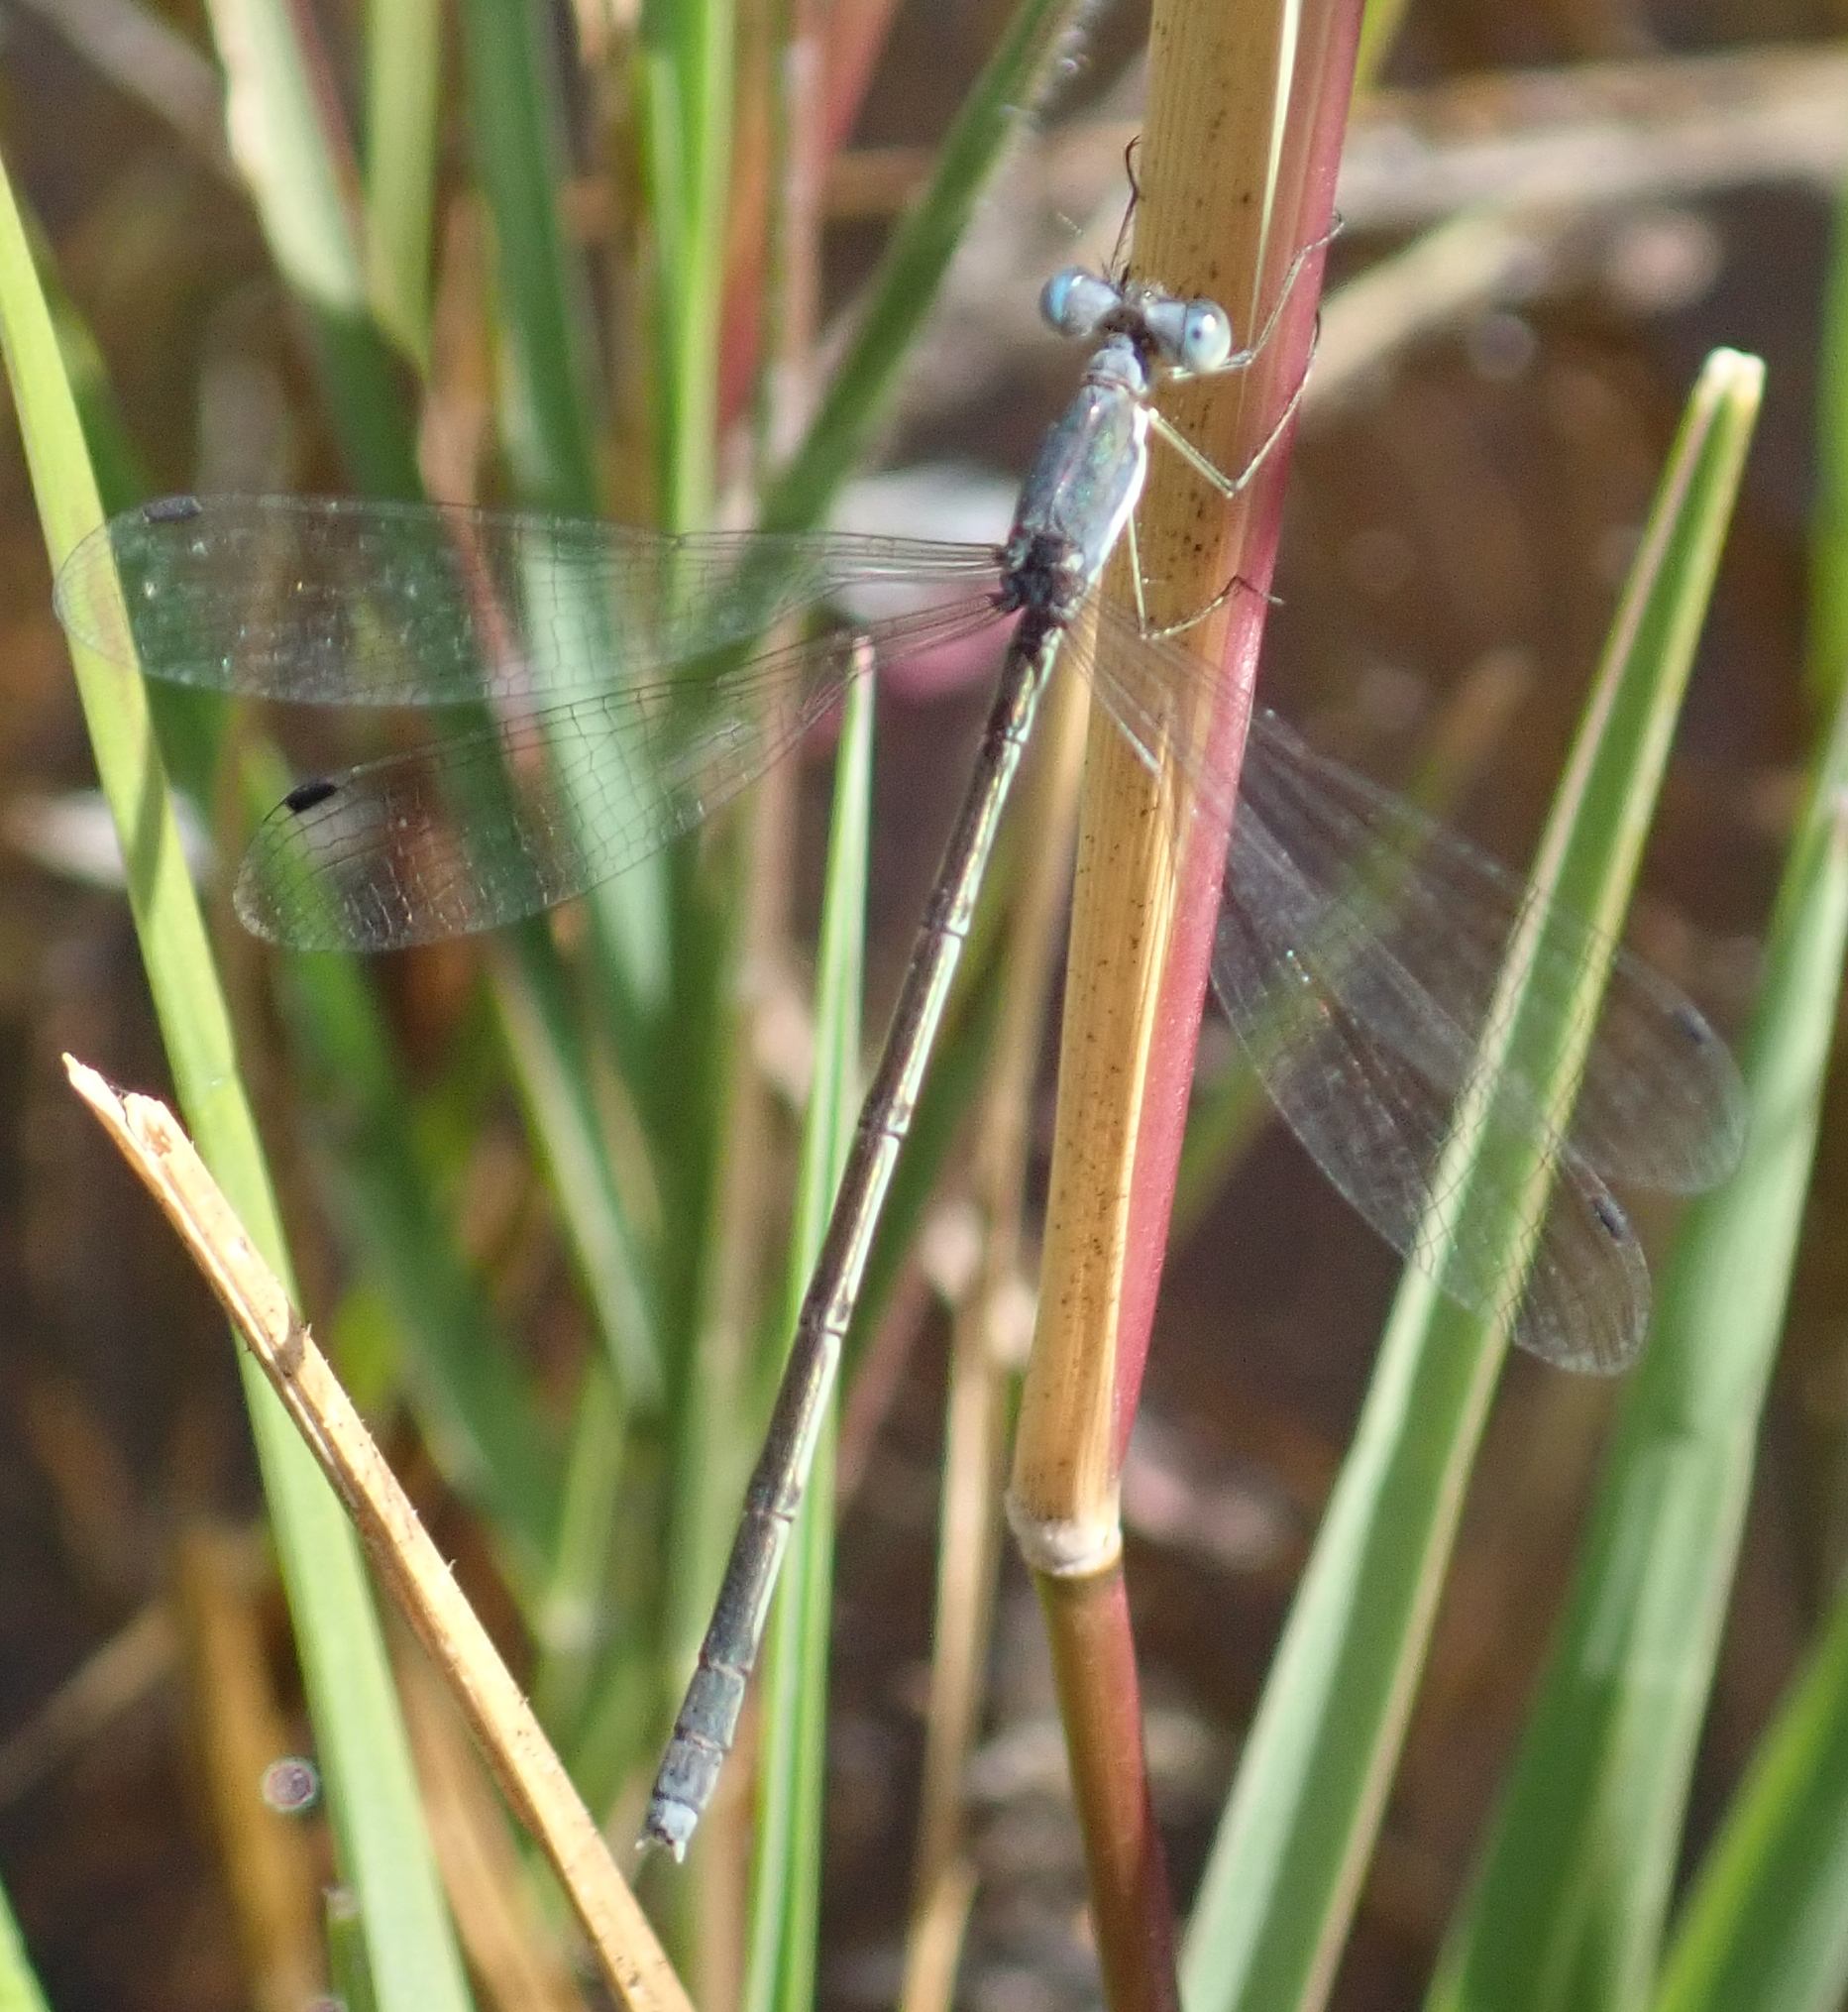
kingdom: Animalia
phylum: Arthropoda
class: Insecta
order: Odonata
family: Lestidae
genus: Lestes
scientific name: Lestes pallidus
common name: Pallid spreadwing
